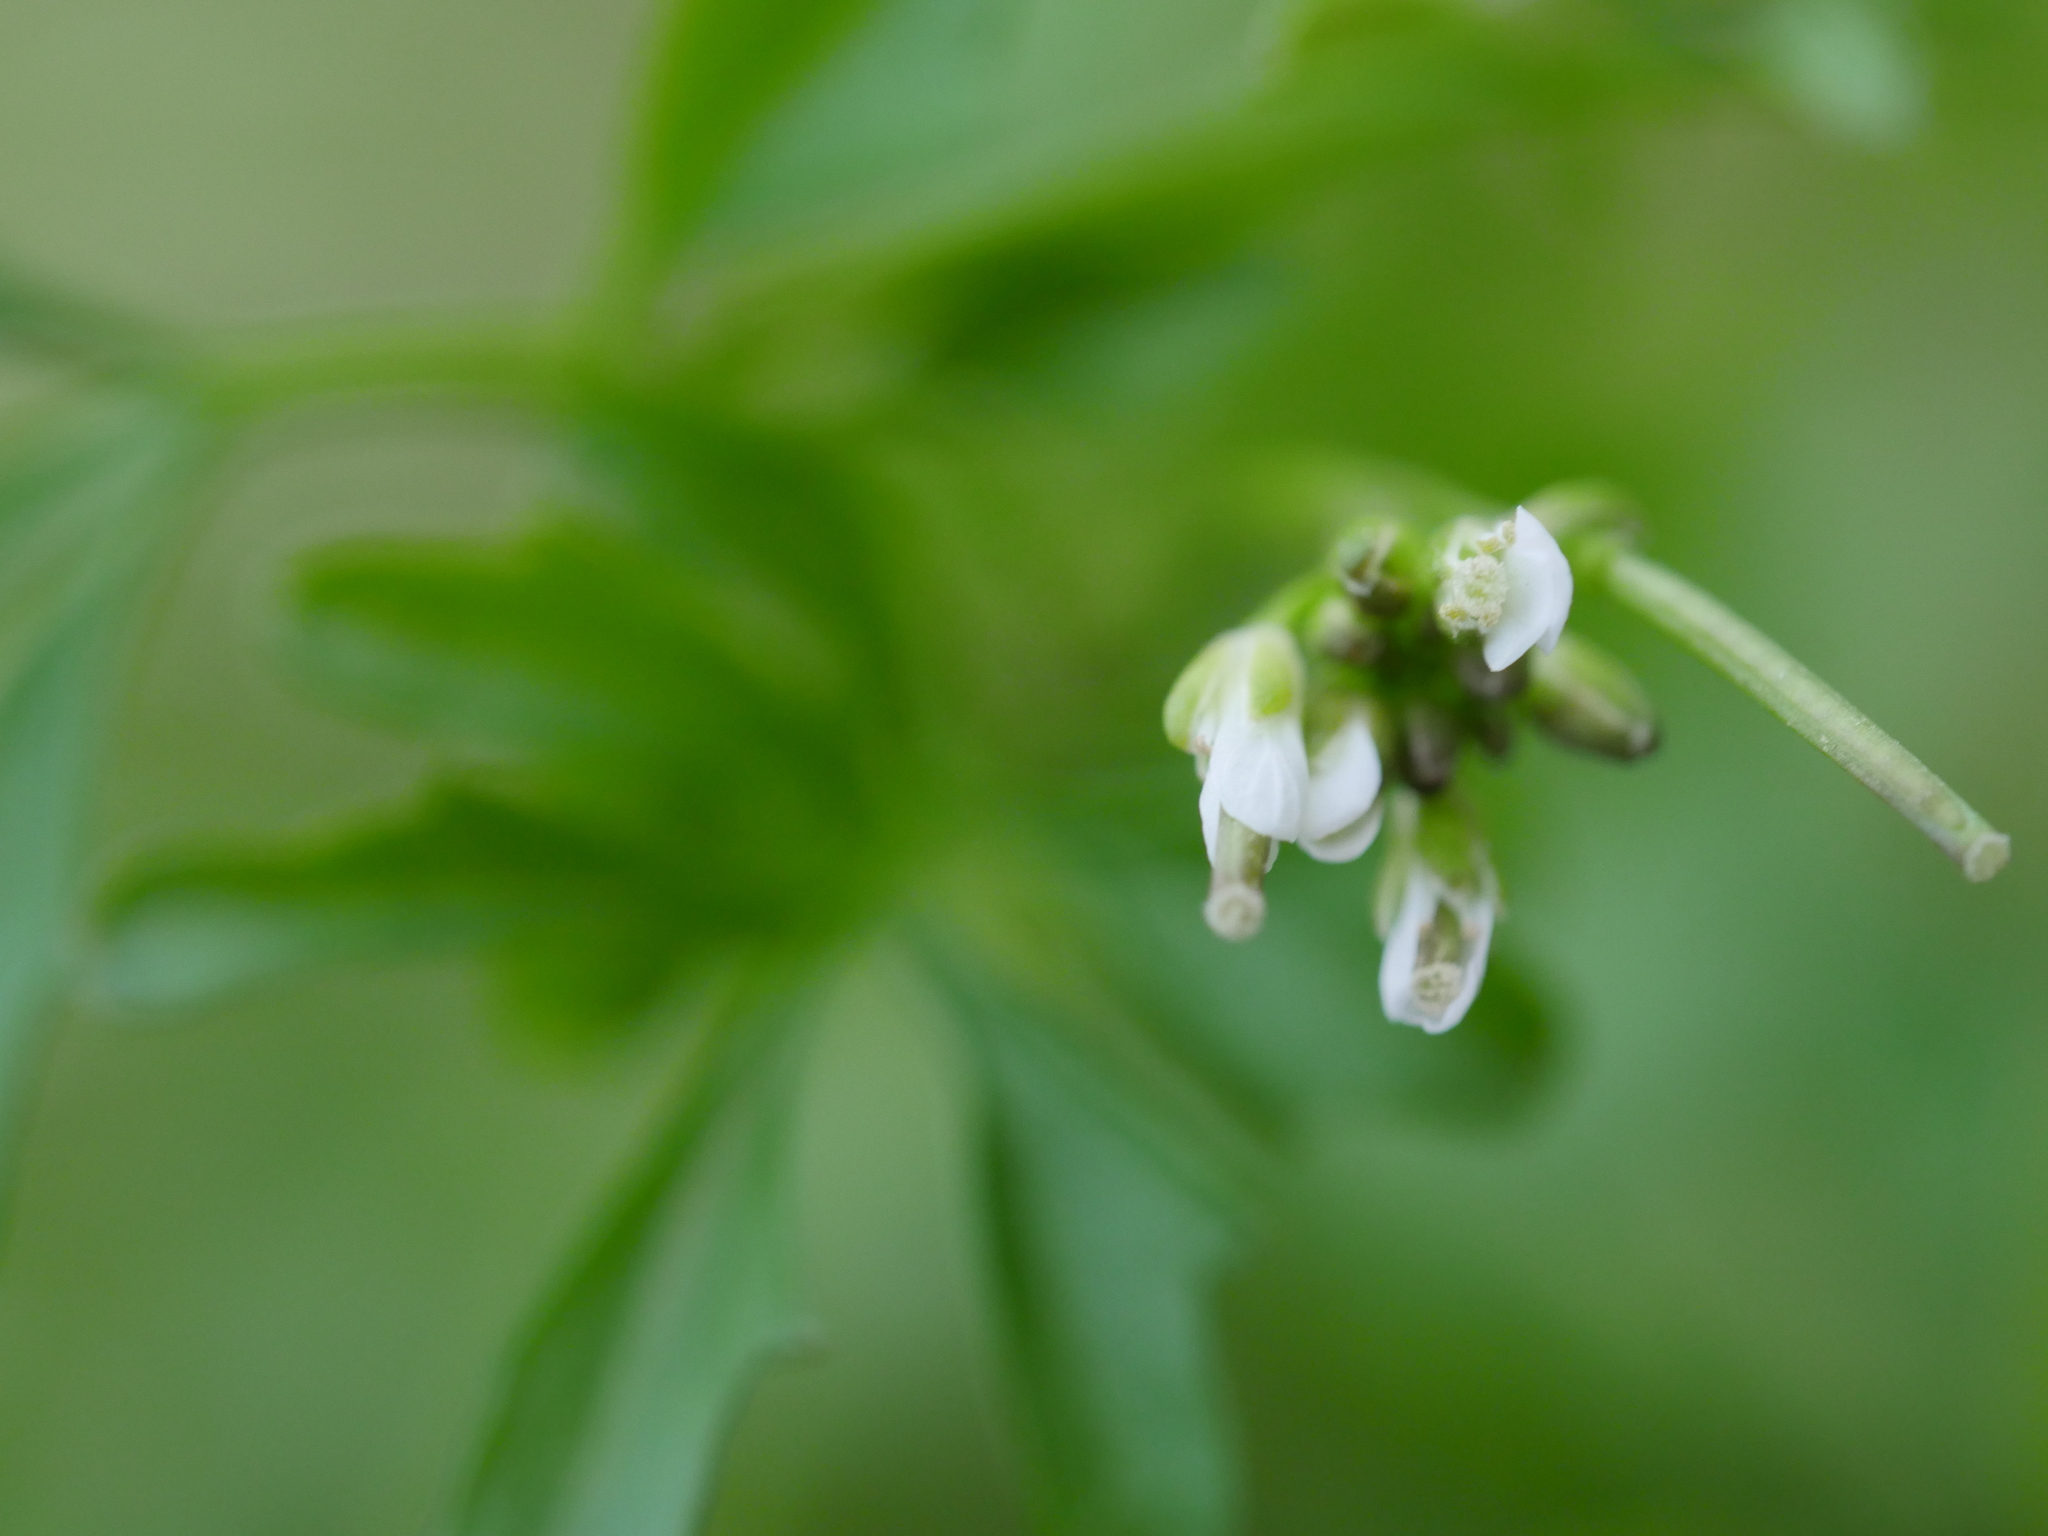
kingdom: Plantae
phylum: Tracheophyta
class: Magnoliopsida
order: Brassicales
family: Brassicaceae
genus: Cardamine
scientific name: Cardamine hirsuta
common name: Hairy bittercress
